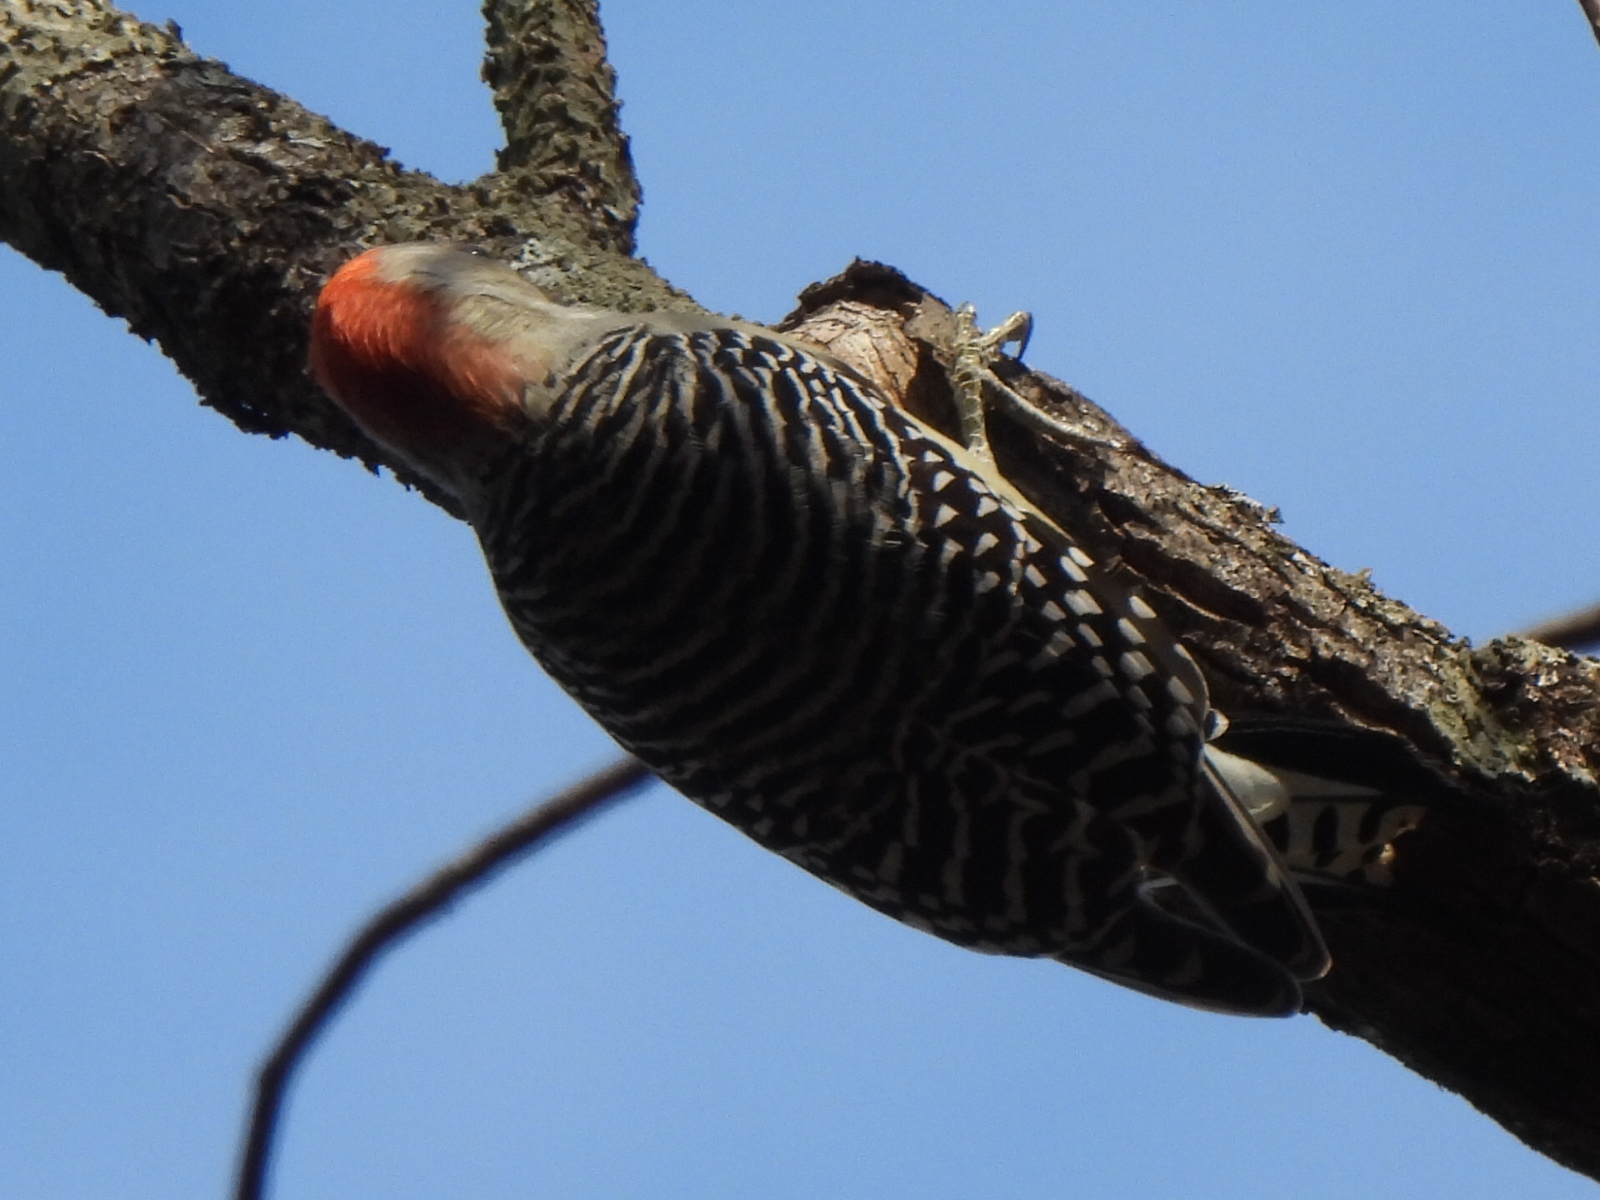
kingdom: Animalia
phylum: Chordata
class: Aves
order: Piciformes
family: Picidae
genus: Melanerpes
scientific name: Melanerpes carolinus
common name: Red-bellied woodpecker
